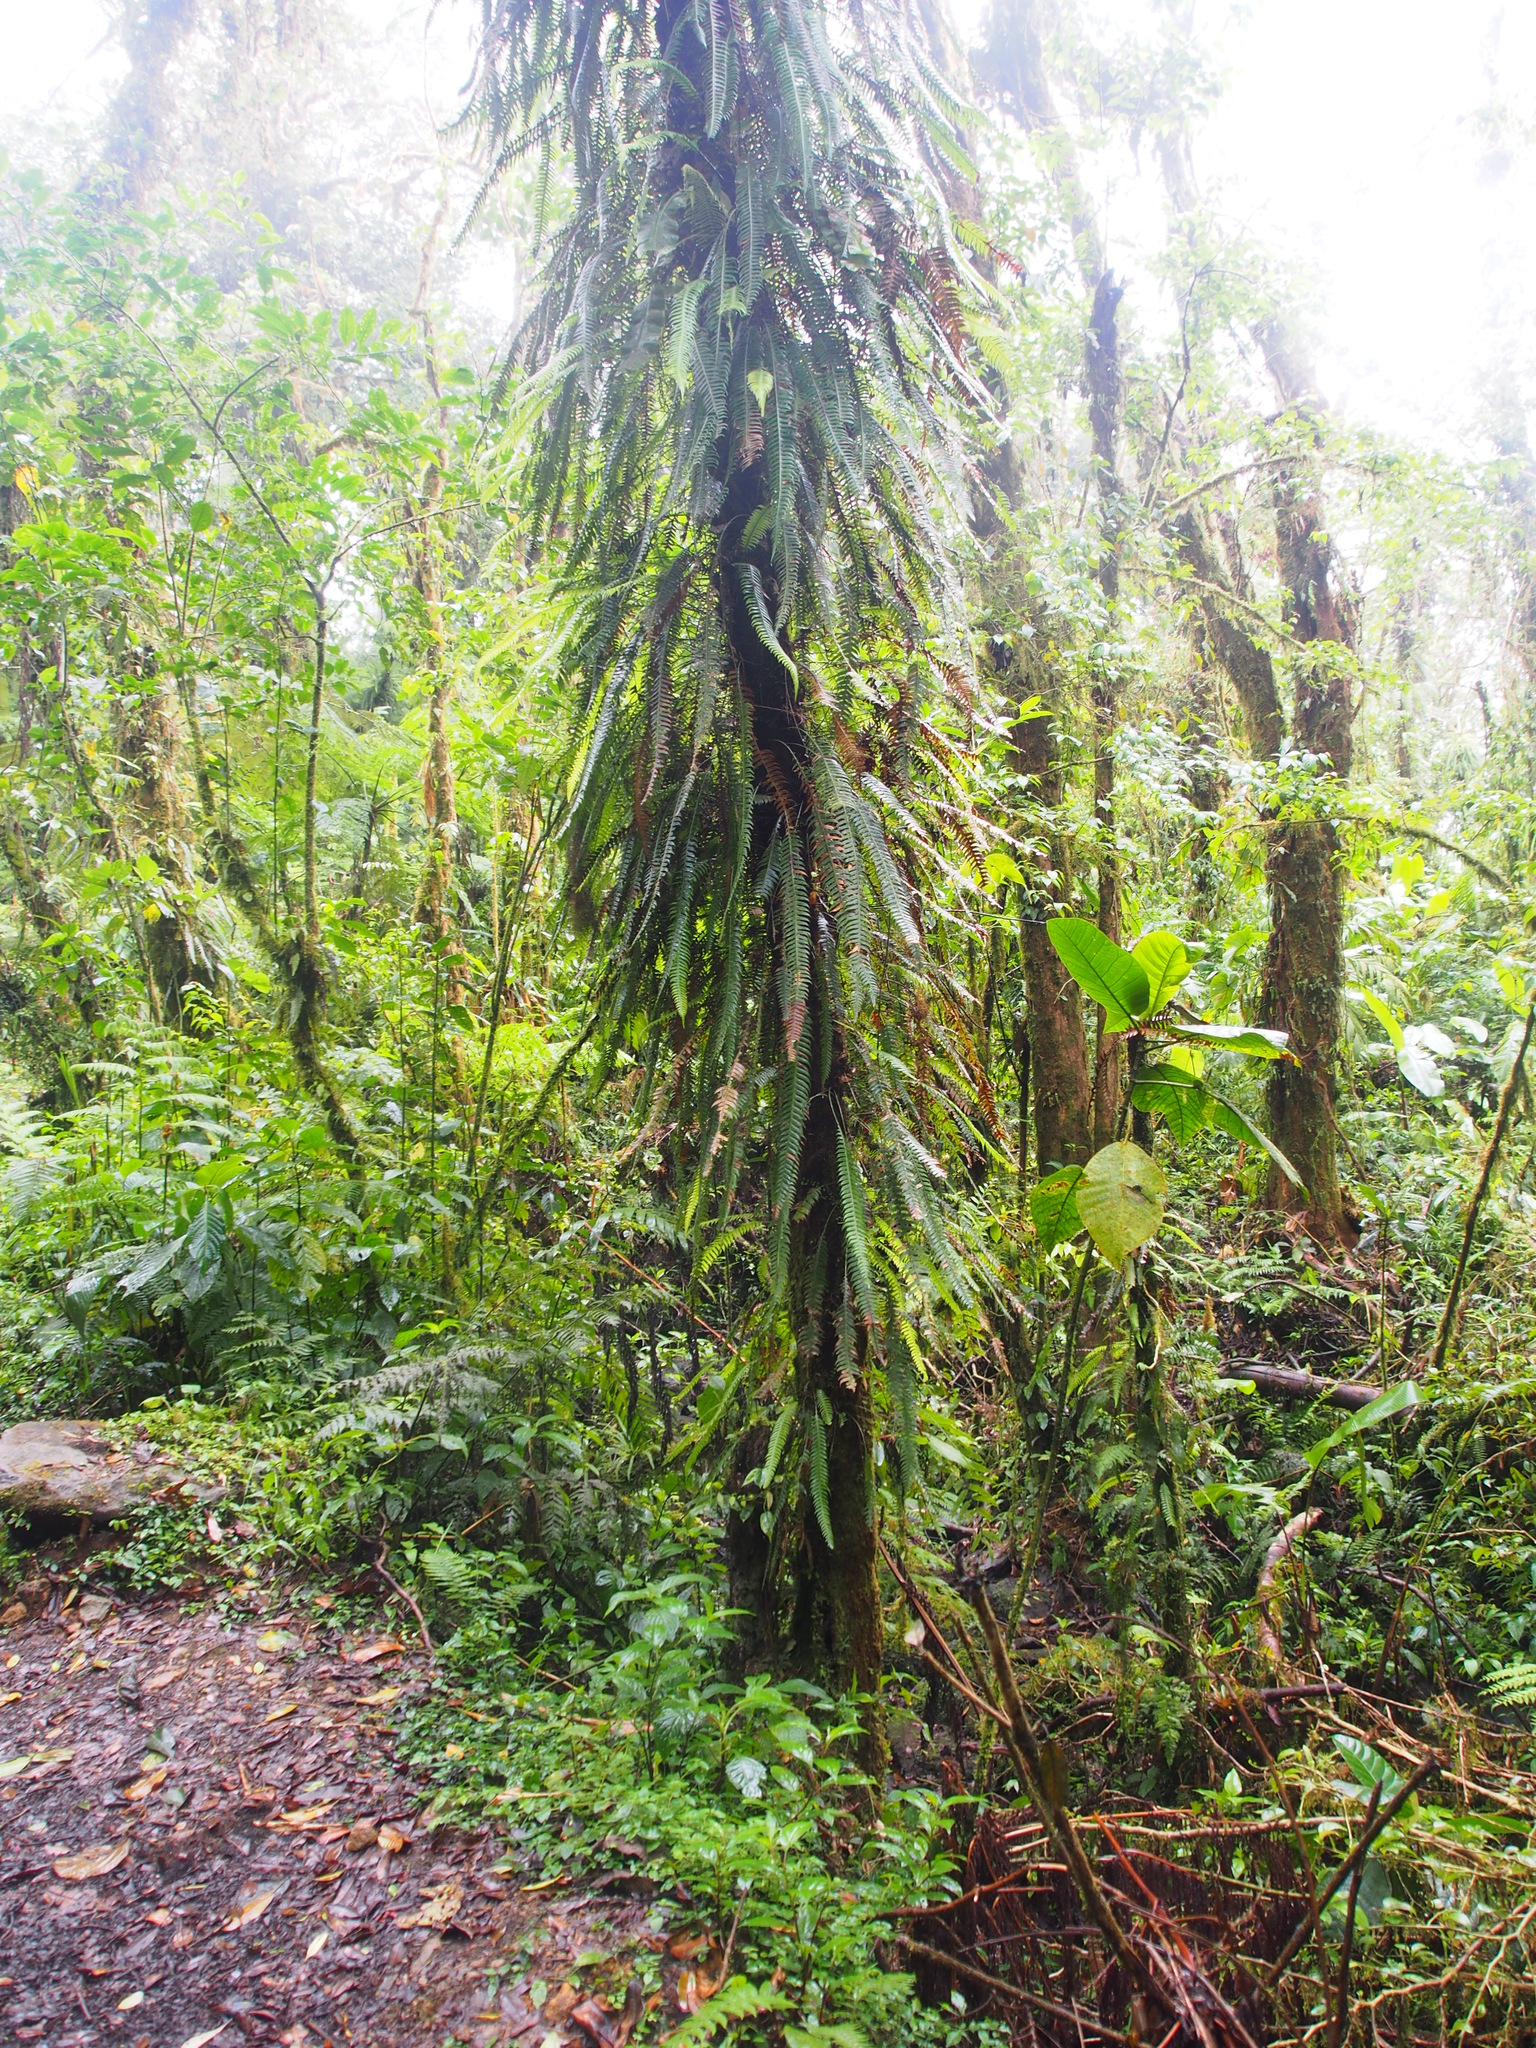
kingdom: Plantae
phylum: Tracheophyta
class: Polypodiopsida
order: Polypodiales
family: Blechnaceae
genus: Lomaridium
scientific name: Lomaridium fragile
